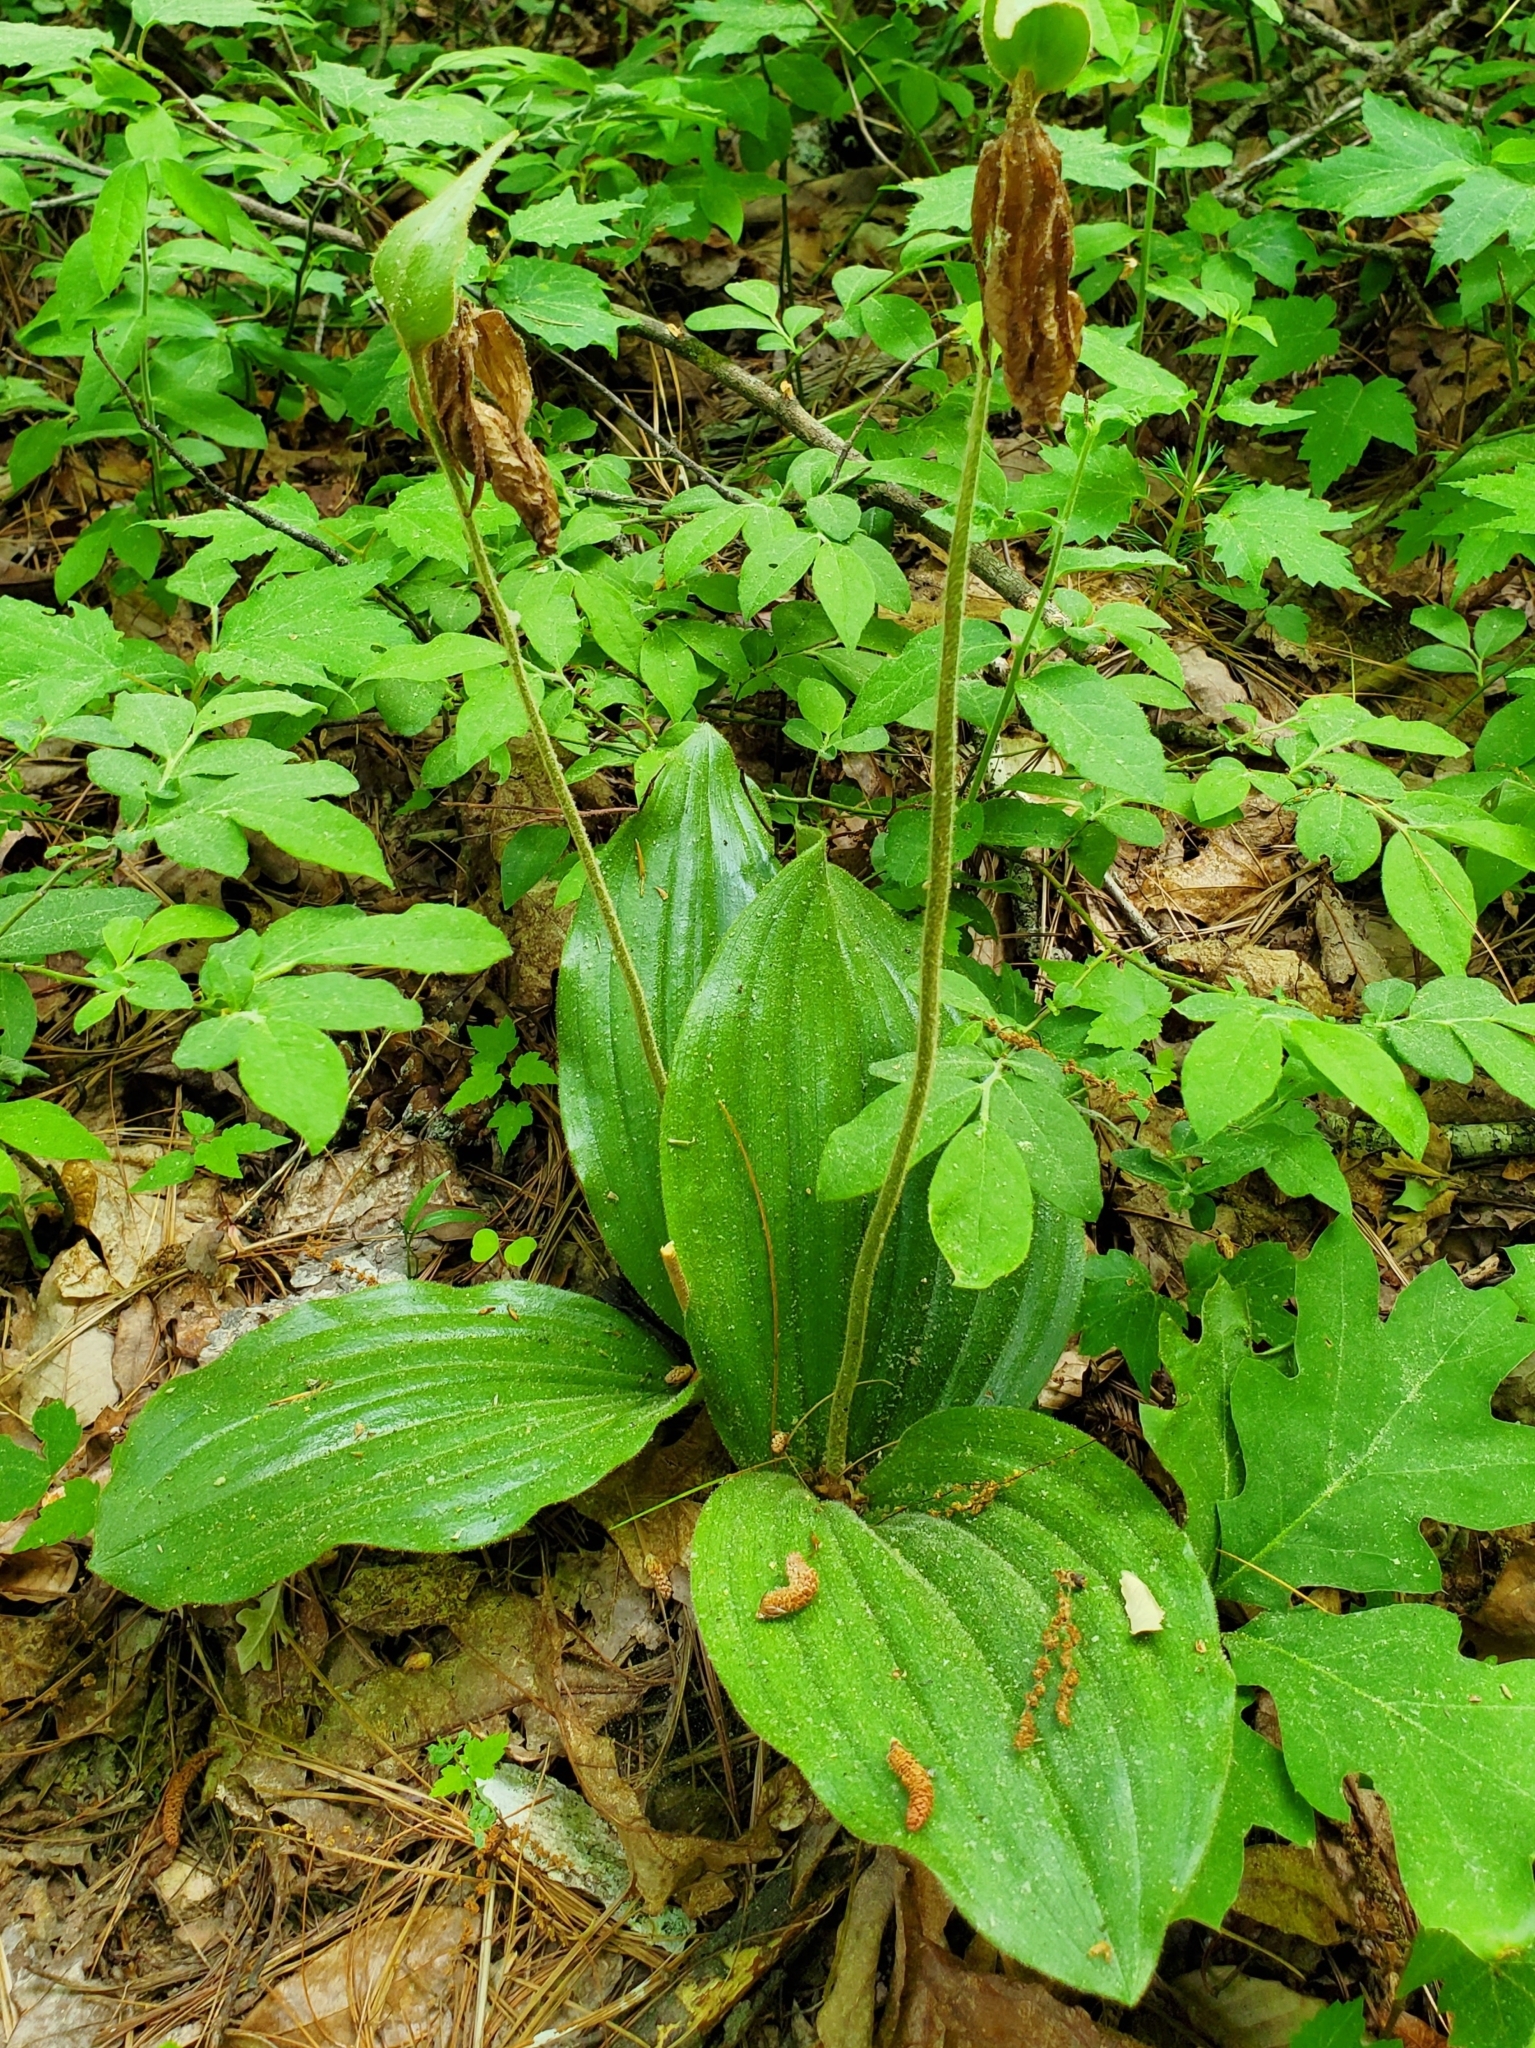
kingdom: Plantae
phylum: Tracheophyta
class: Liliopsida
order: Asparagales
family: Orchidaceae
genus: Cypripedium
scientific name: Cypripedium acaule
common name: Pink lady's-slipper
